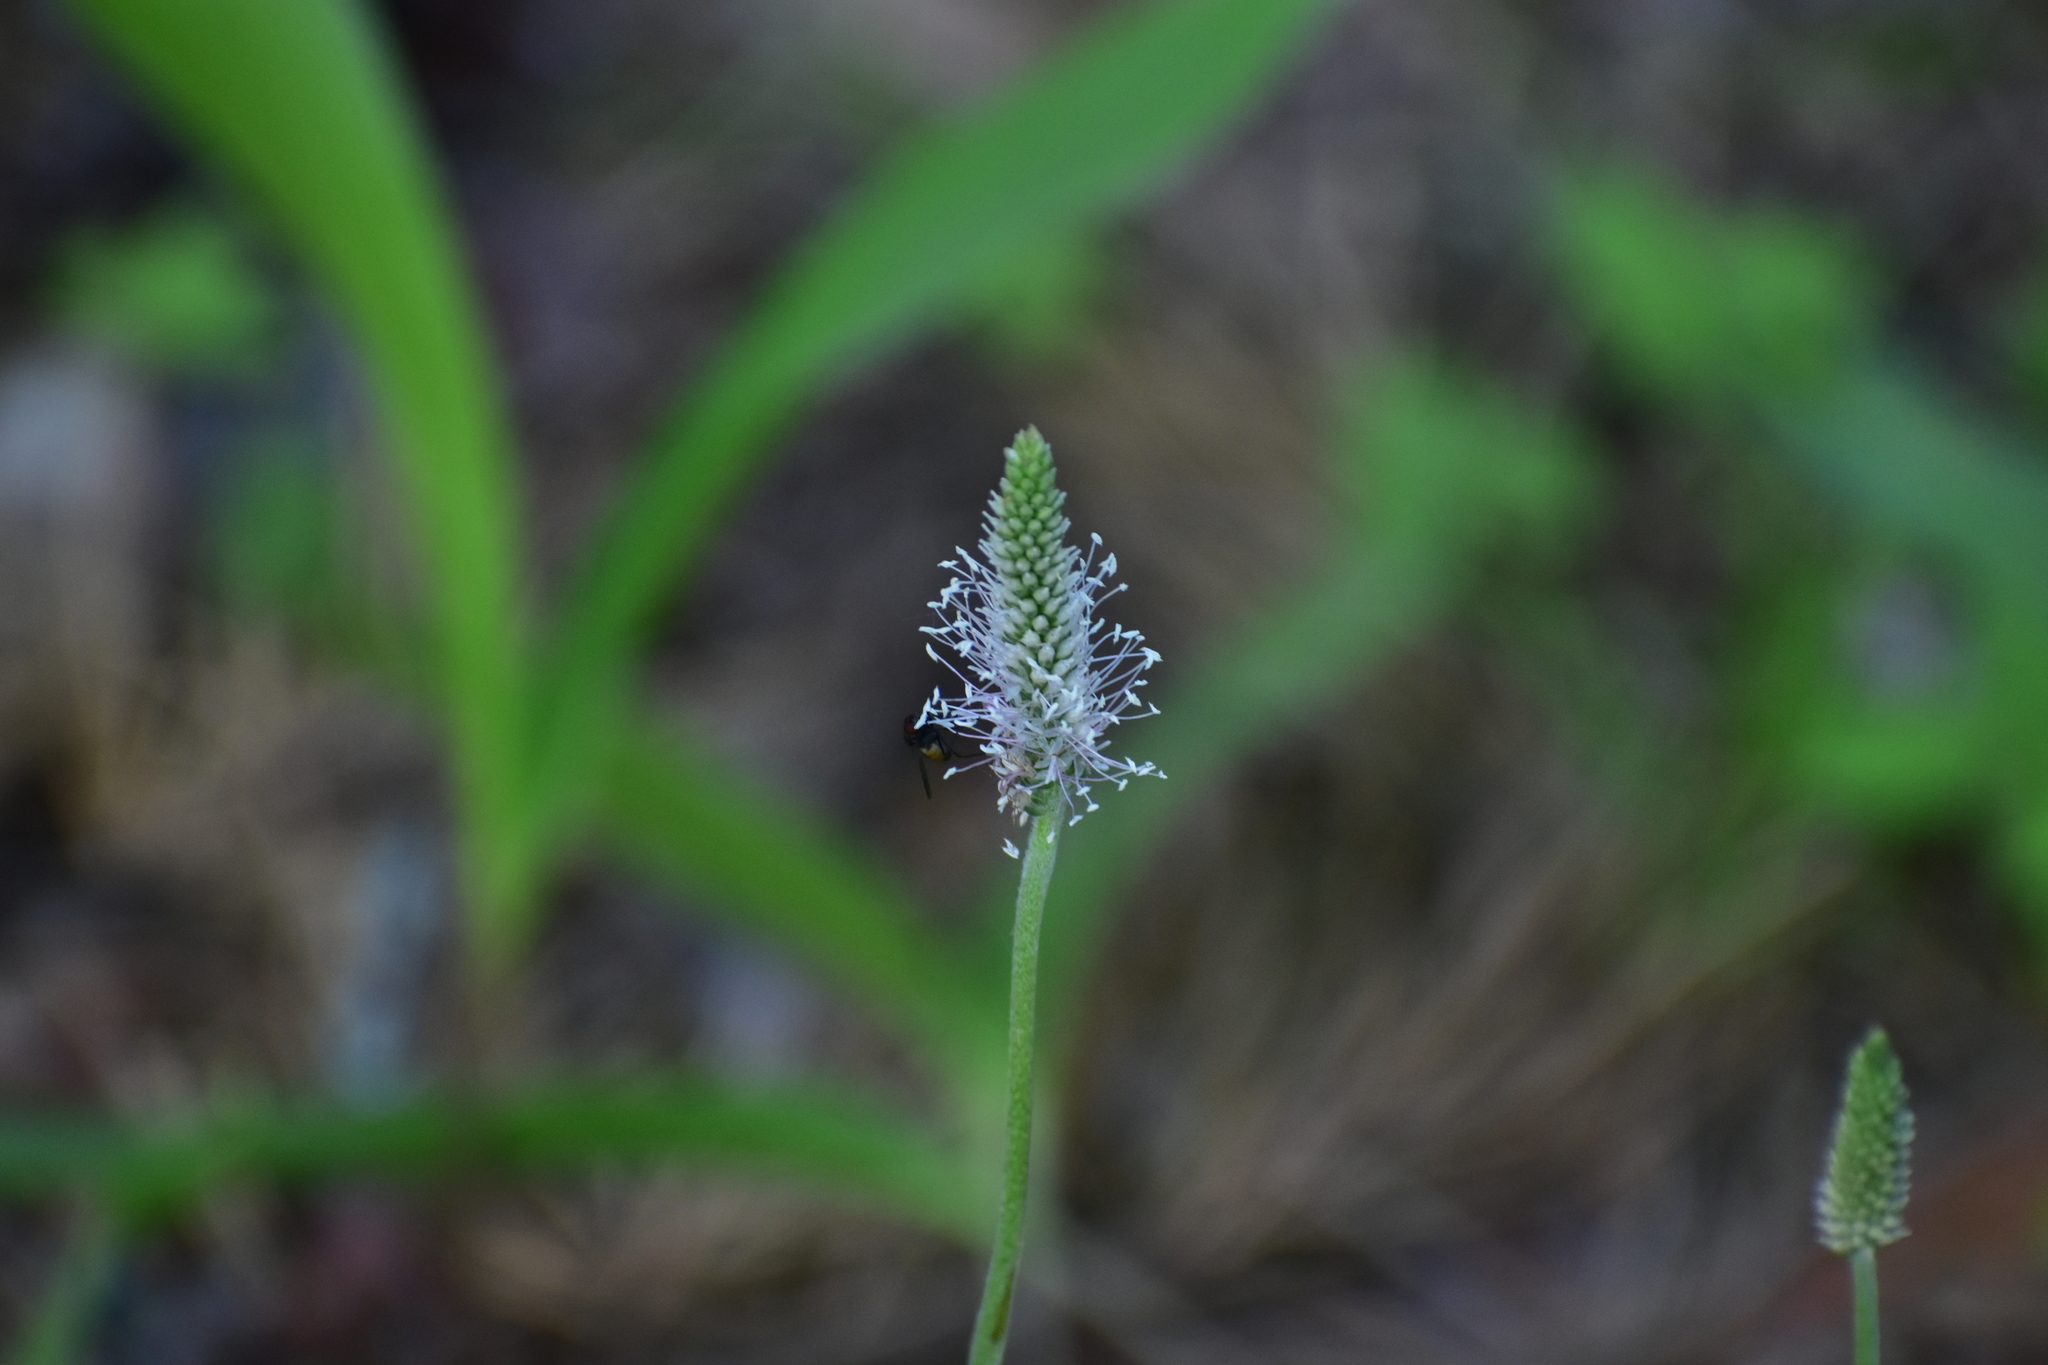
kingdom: Plantae
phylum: Tracheophyta
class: Magnoliopsida
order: Lamiales
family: Plantaginaceae
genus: Plantago
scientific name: Plantago media
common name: Hoary plantain
